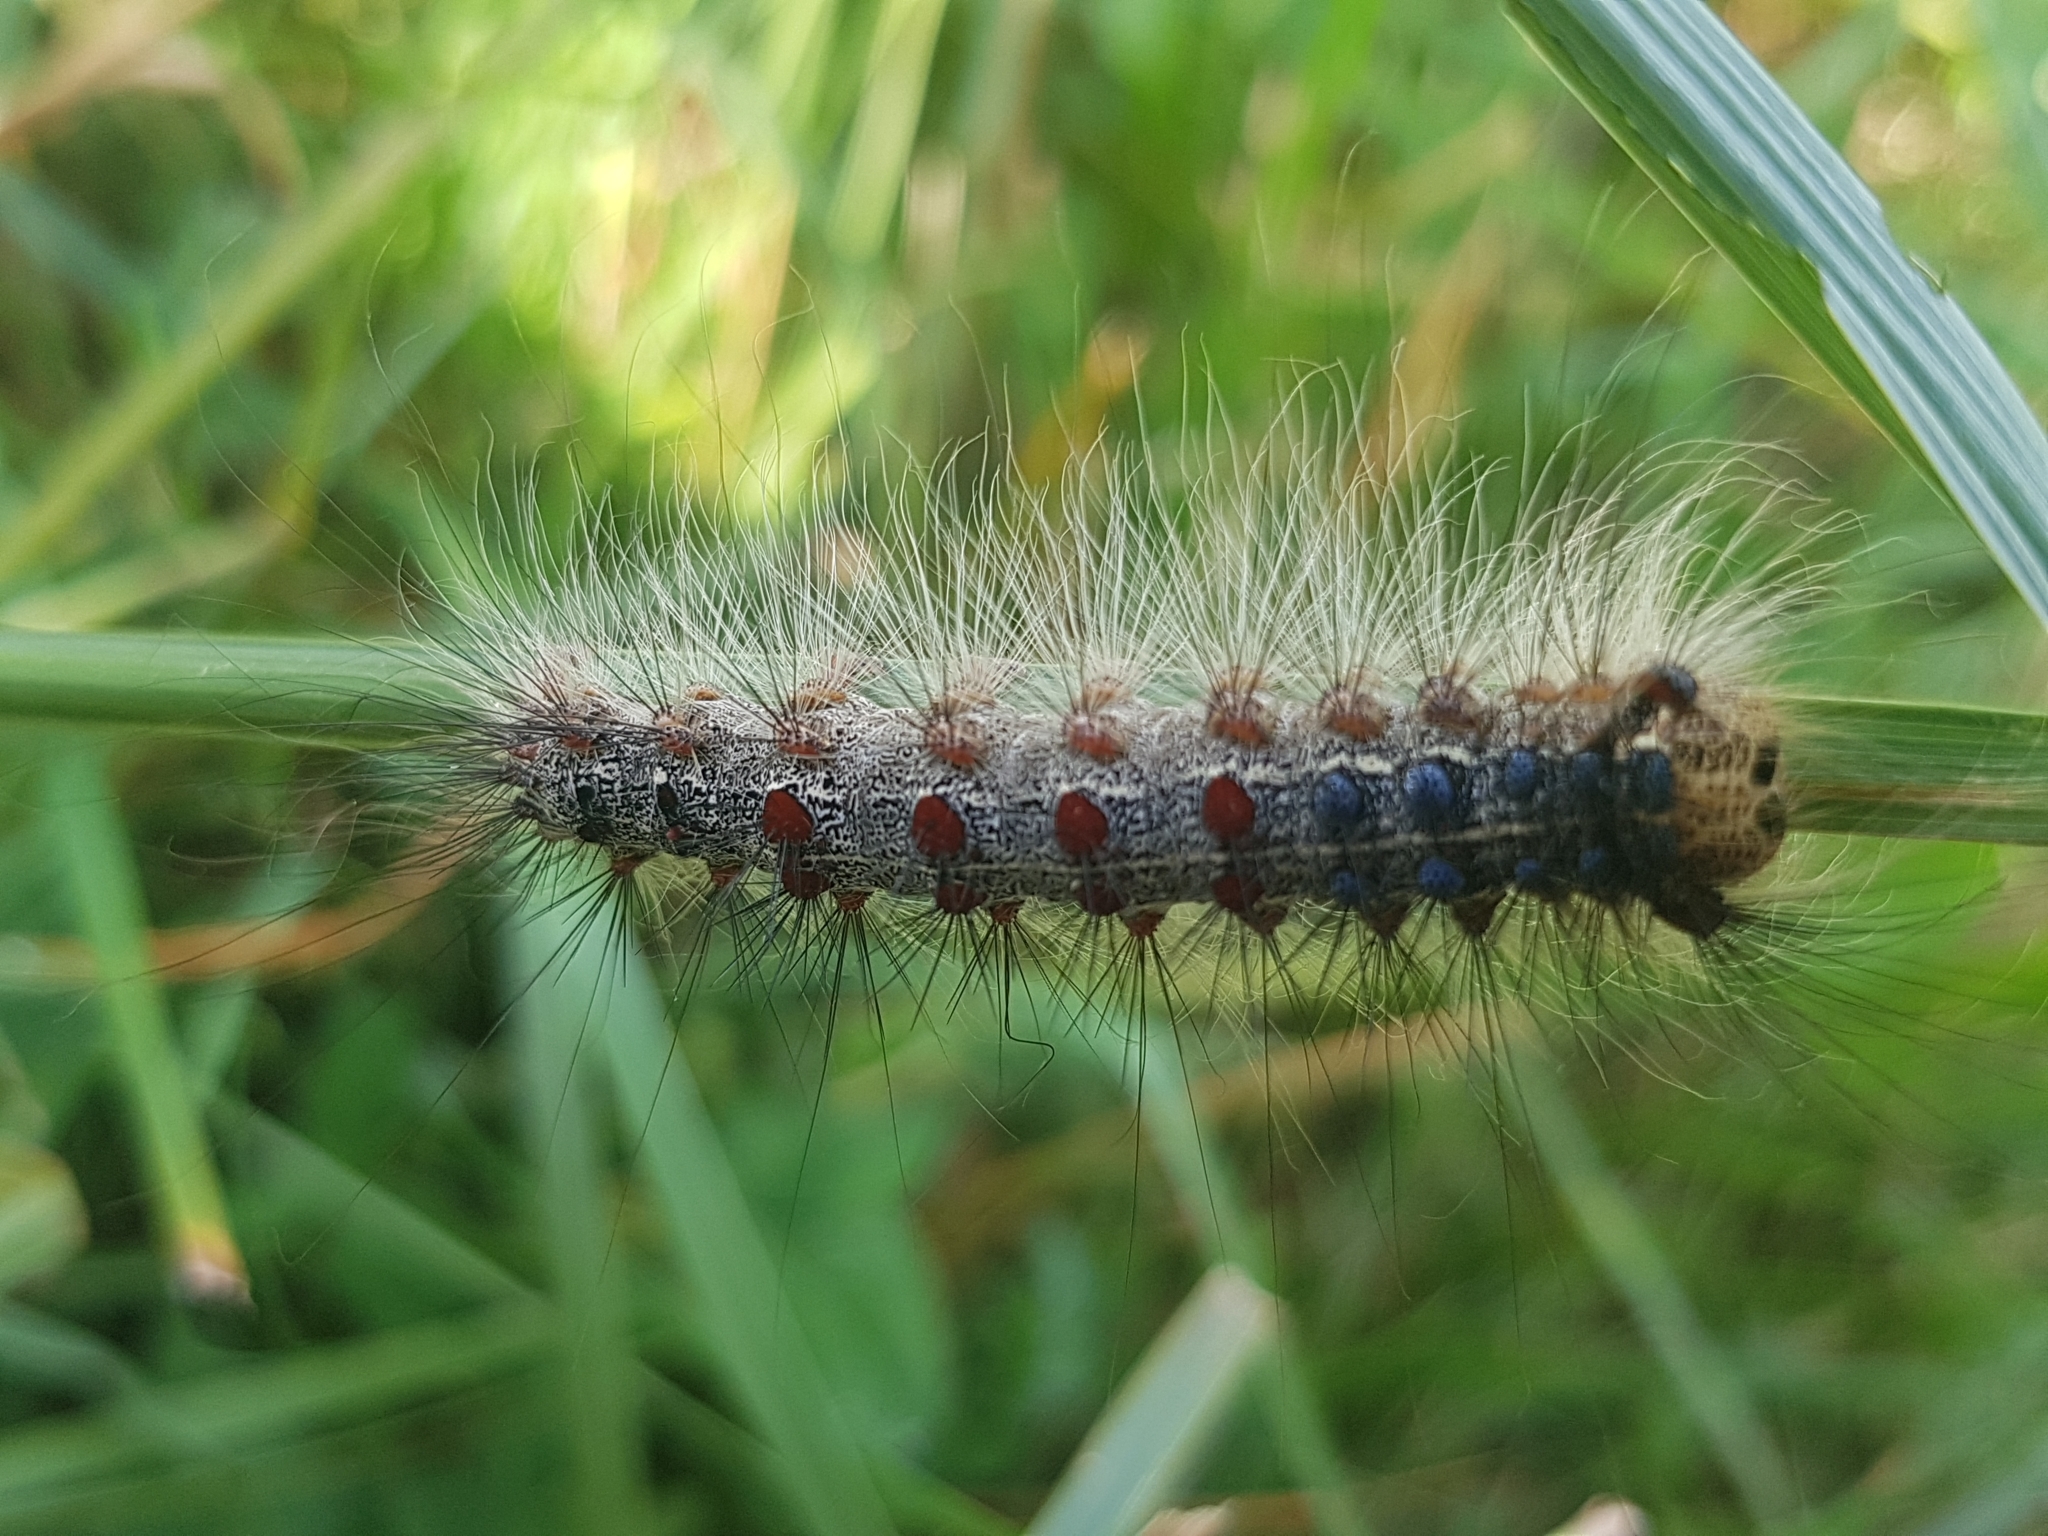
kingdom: Animalia
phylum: Arthropoda
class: Insecta
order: Lepidoptera
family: Erebidae
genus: Lymantria
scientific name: Lymantria dispar
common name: Gypsy moth
